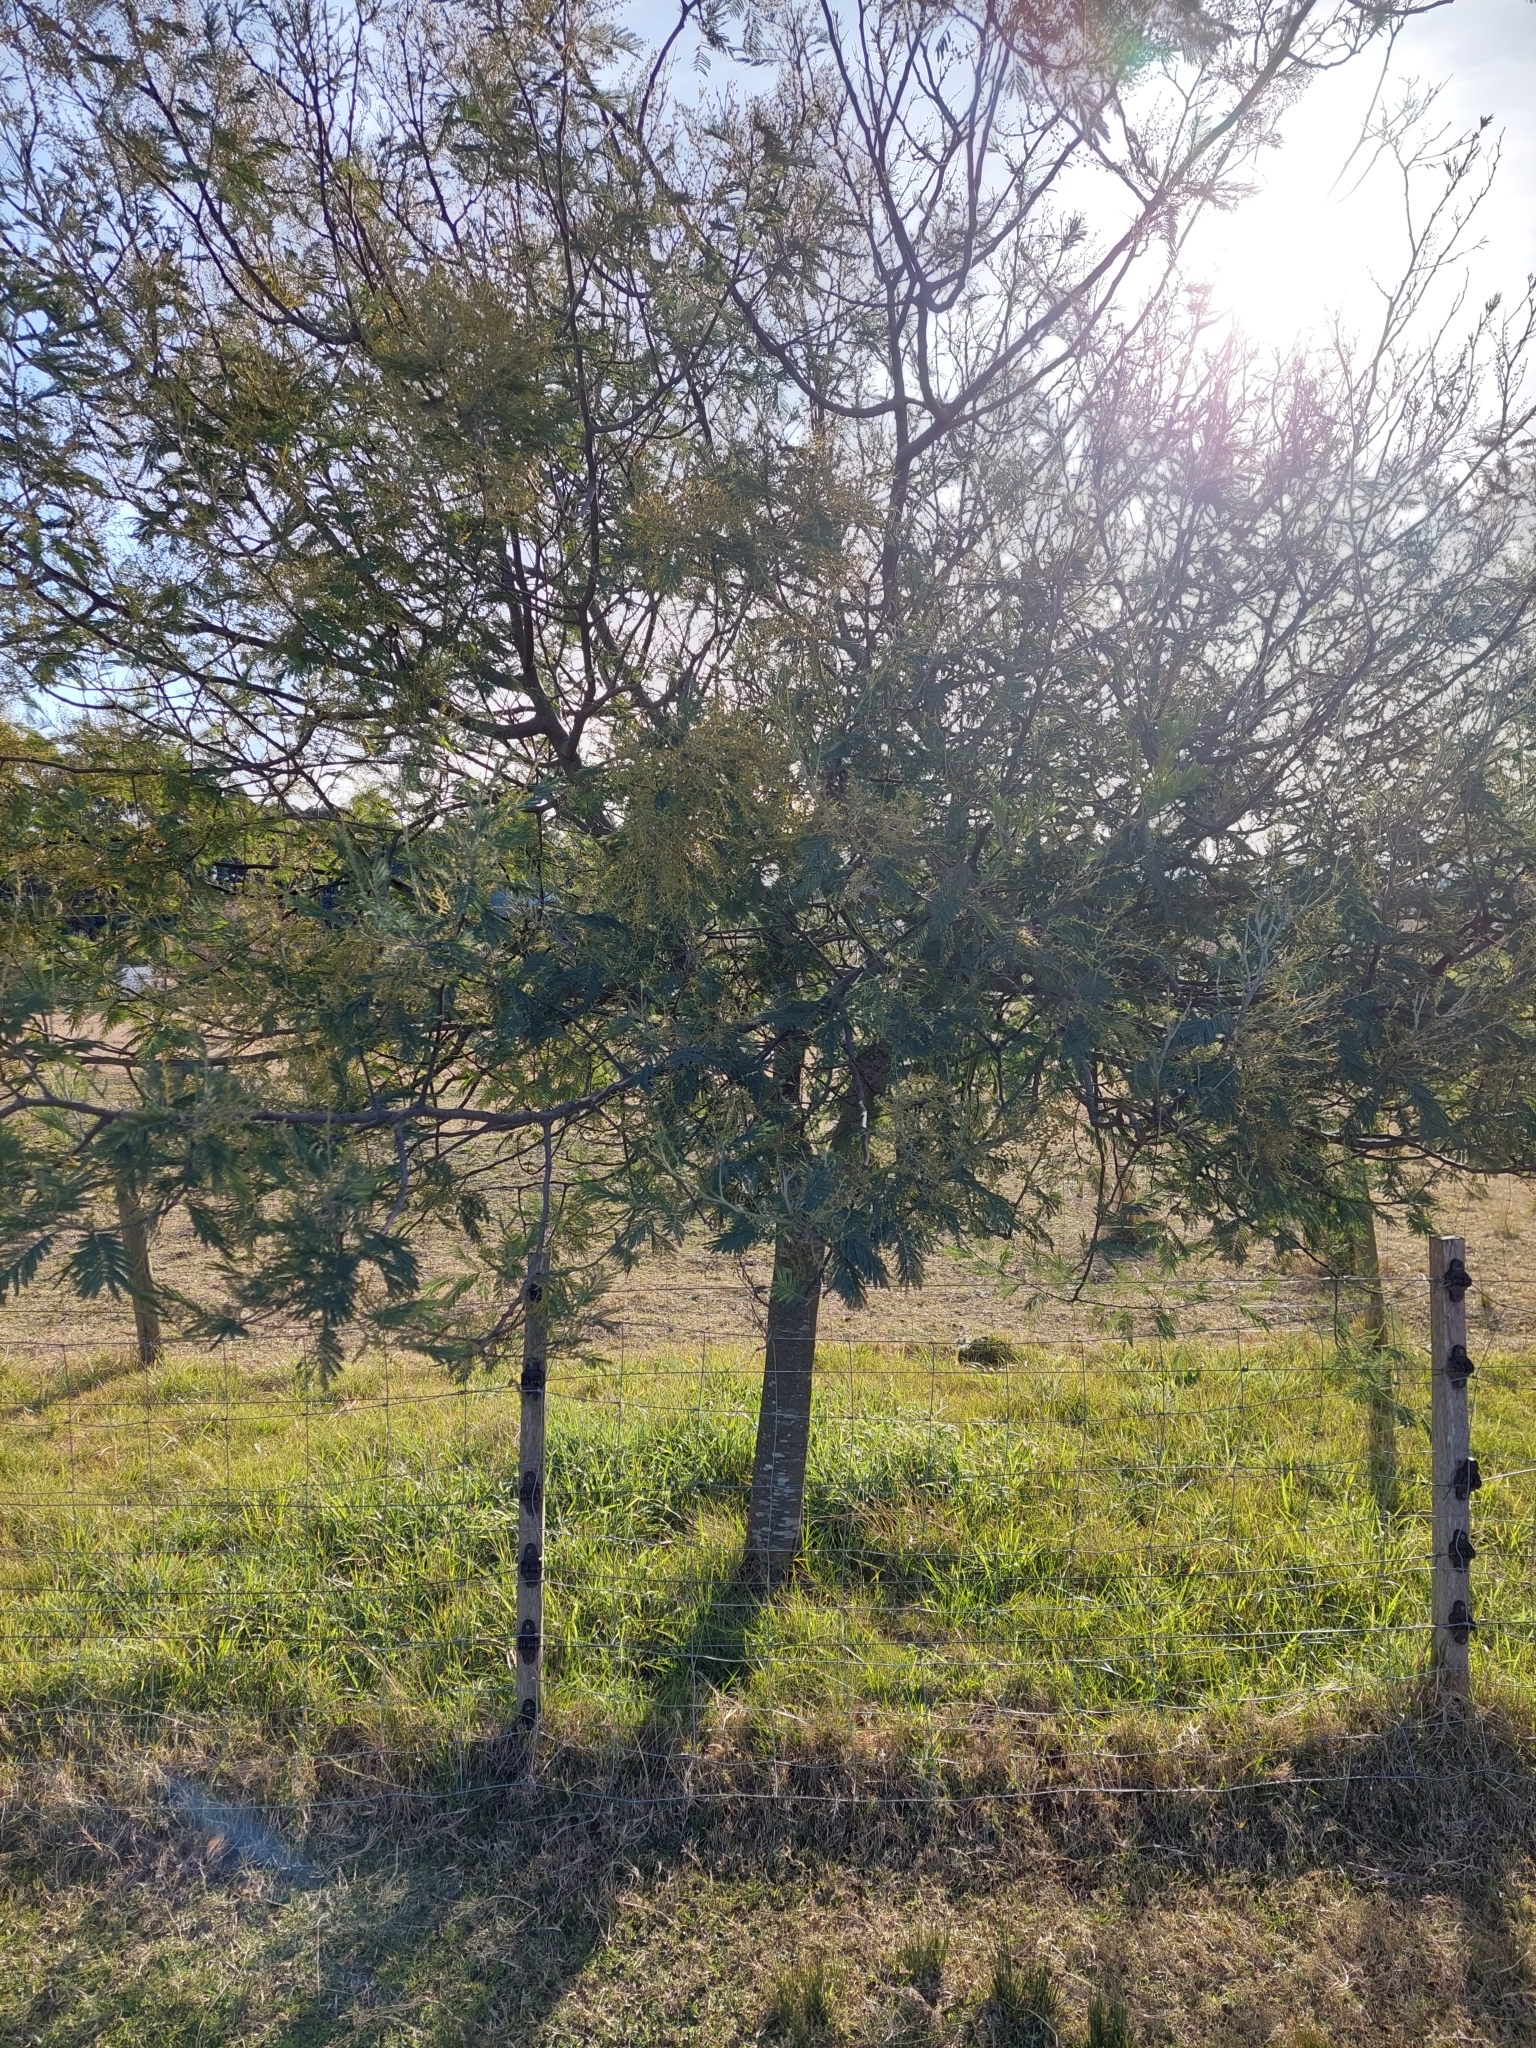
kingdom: Plantae
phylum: Tracheophyta
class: Magnoliopsida
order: Fabales
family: Fabaceae
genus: Acacia
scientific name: Acacia dealbata
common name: Silver wattle
